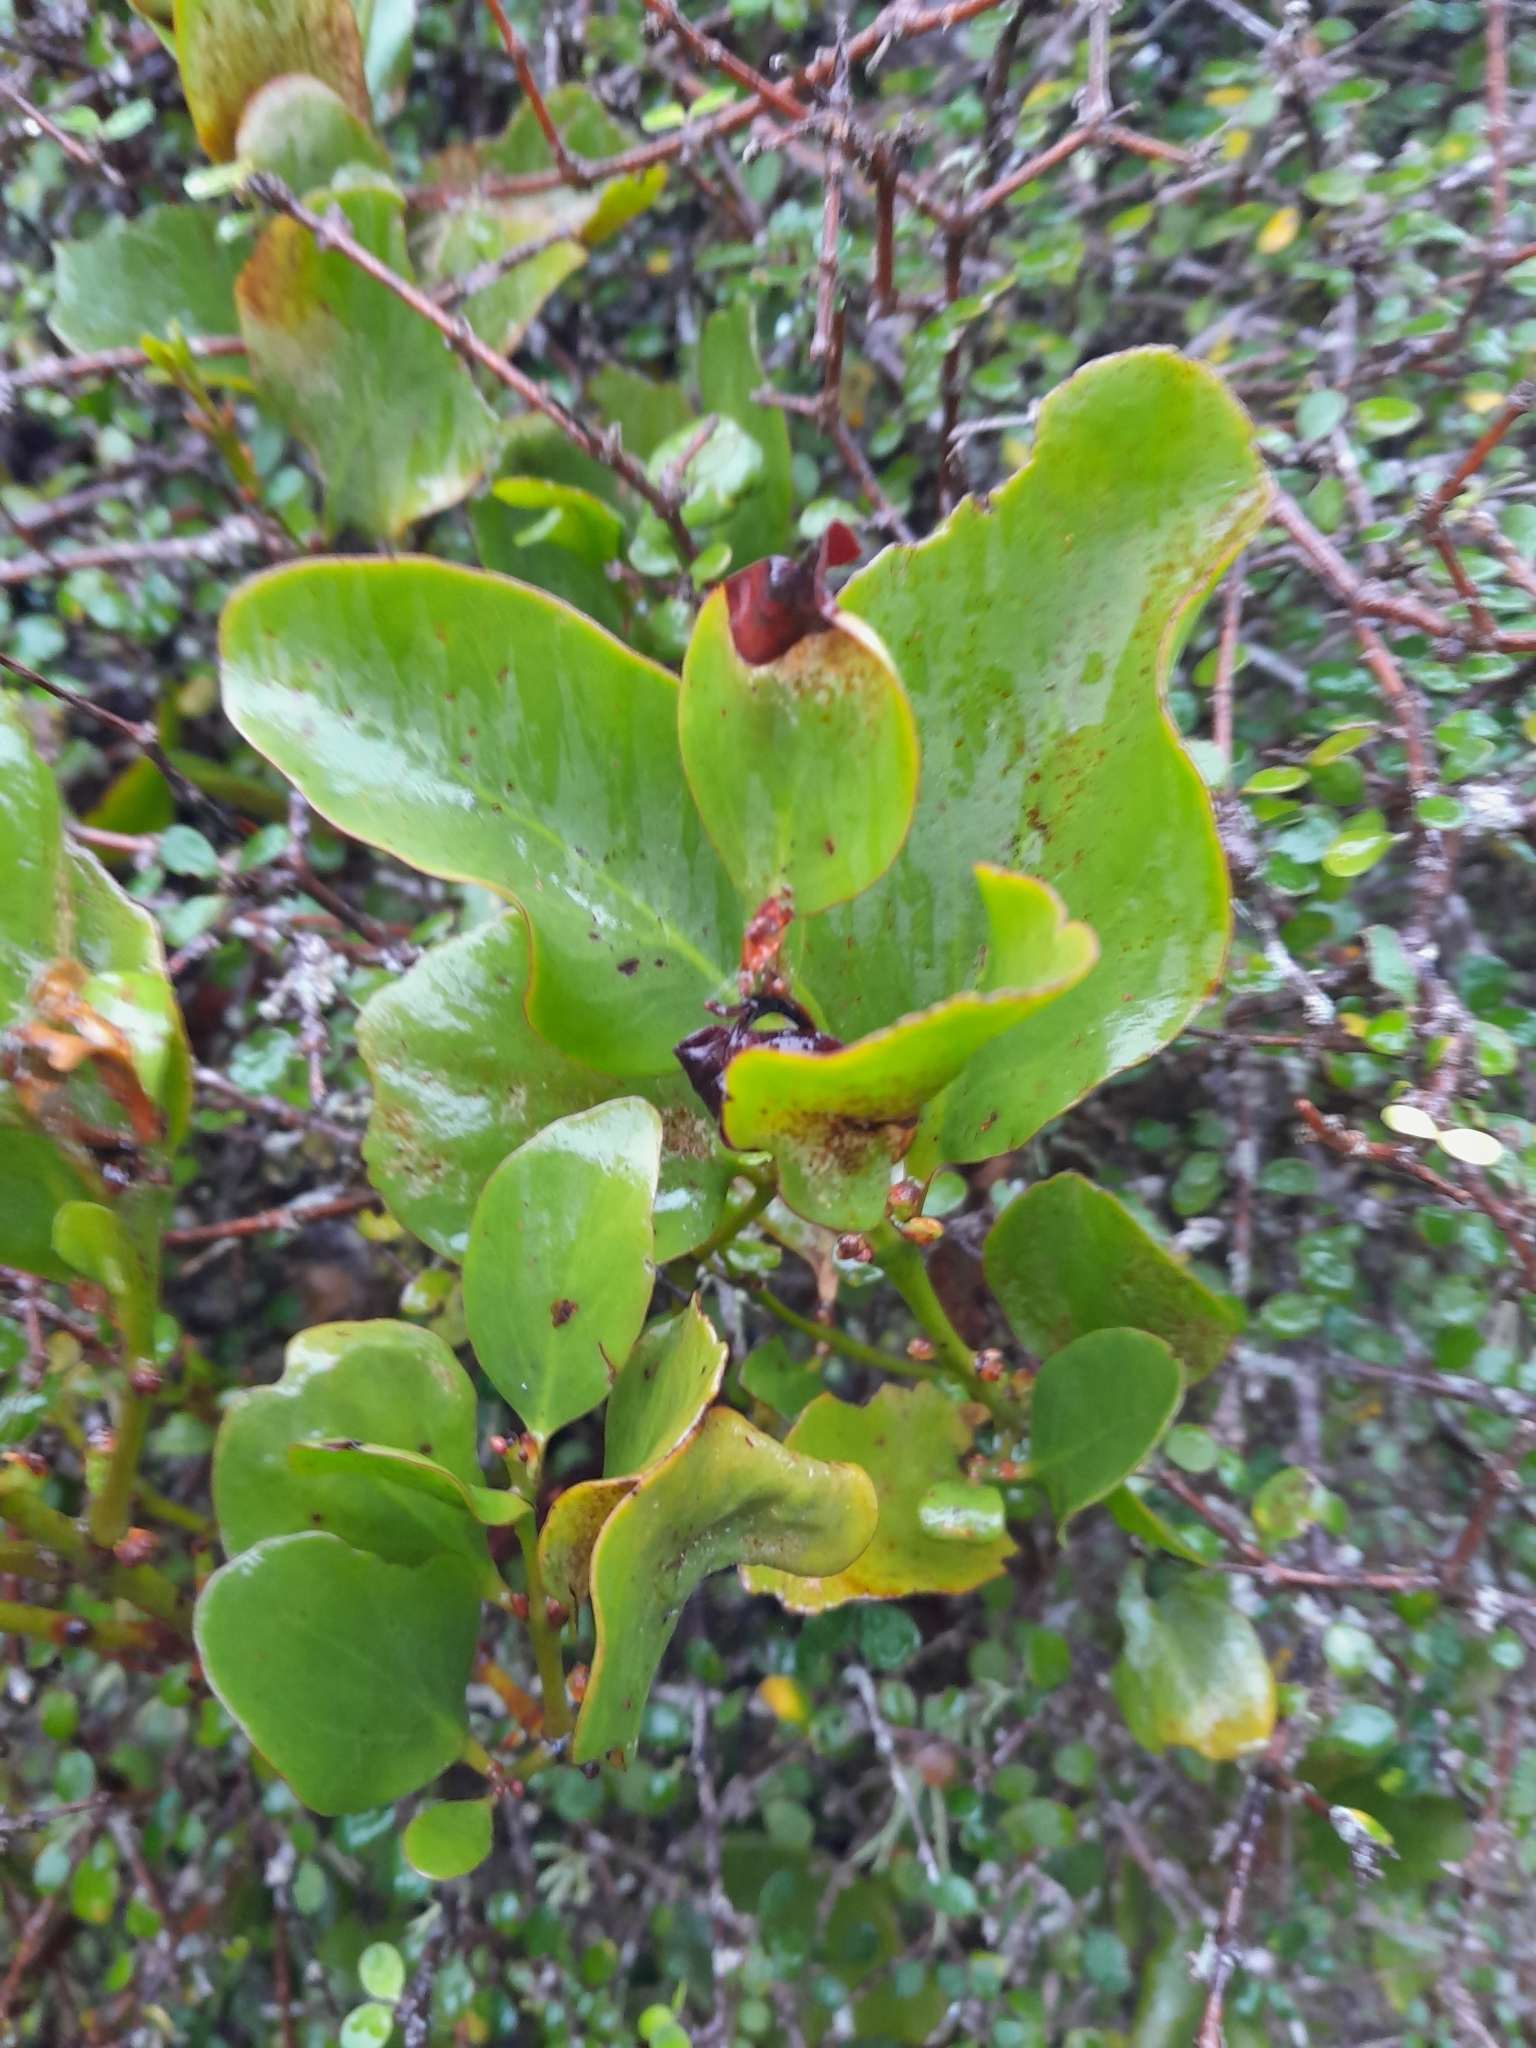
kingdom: Plantae
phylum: Tracheophyta
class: Magnoliopsida
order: Santalales
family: Loranthaceae
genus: Ileostylus
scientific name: Ileostylus micranthus
